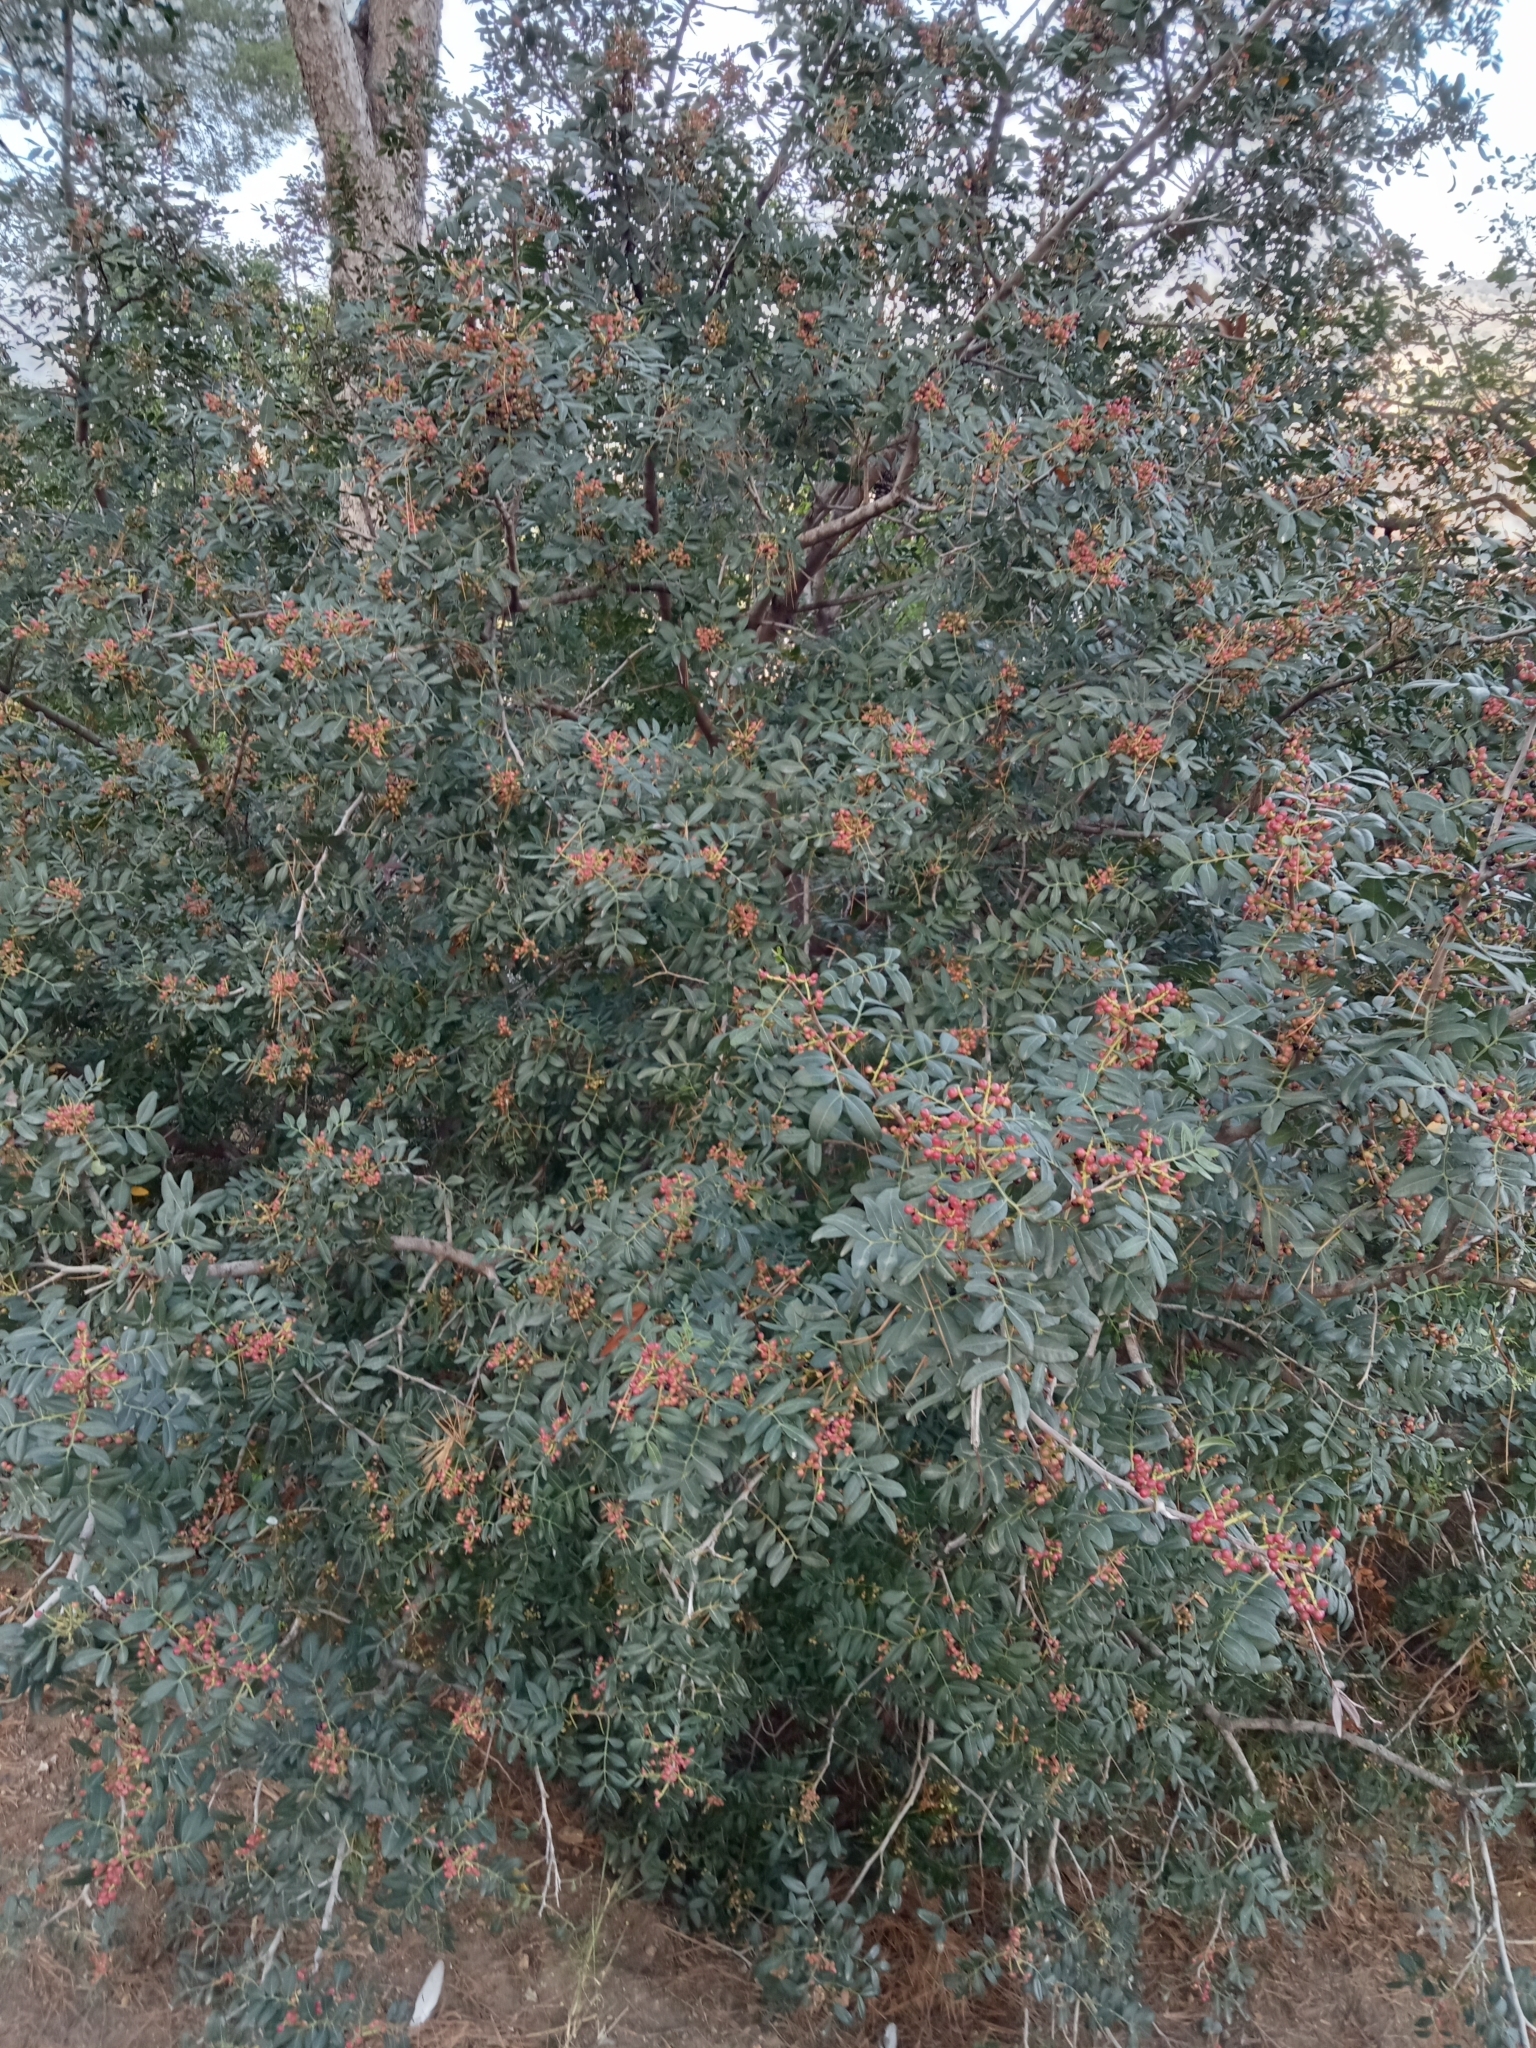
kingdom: Plantae
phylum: Tracheophyta
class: Magnoliopsida
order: Sapindales
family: Anacardiaceae
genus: Pistacia
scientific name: Pistacia lentiscus
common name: Lentisk
